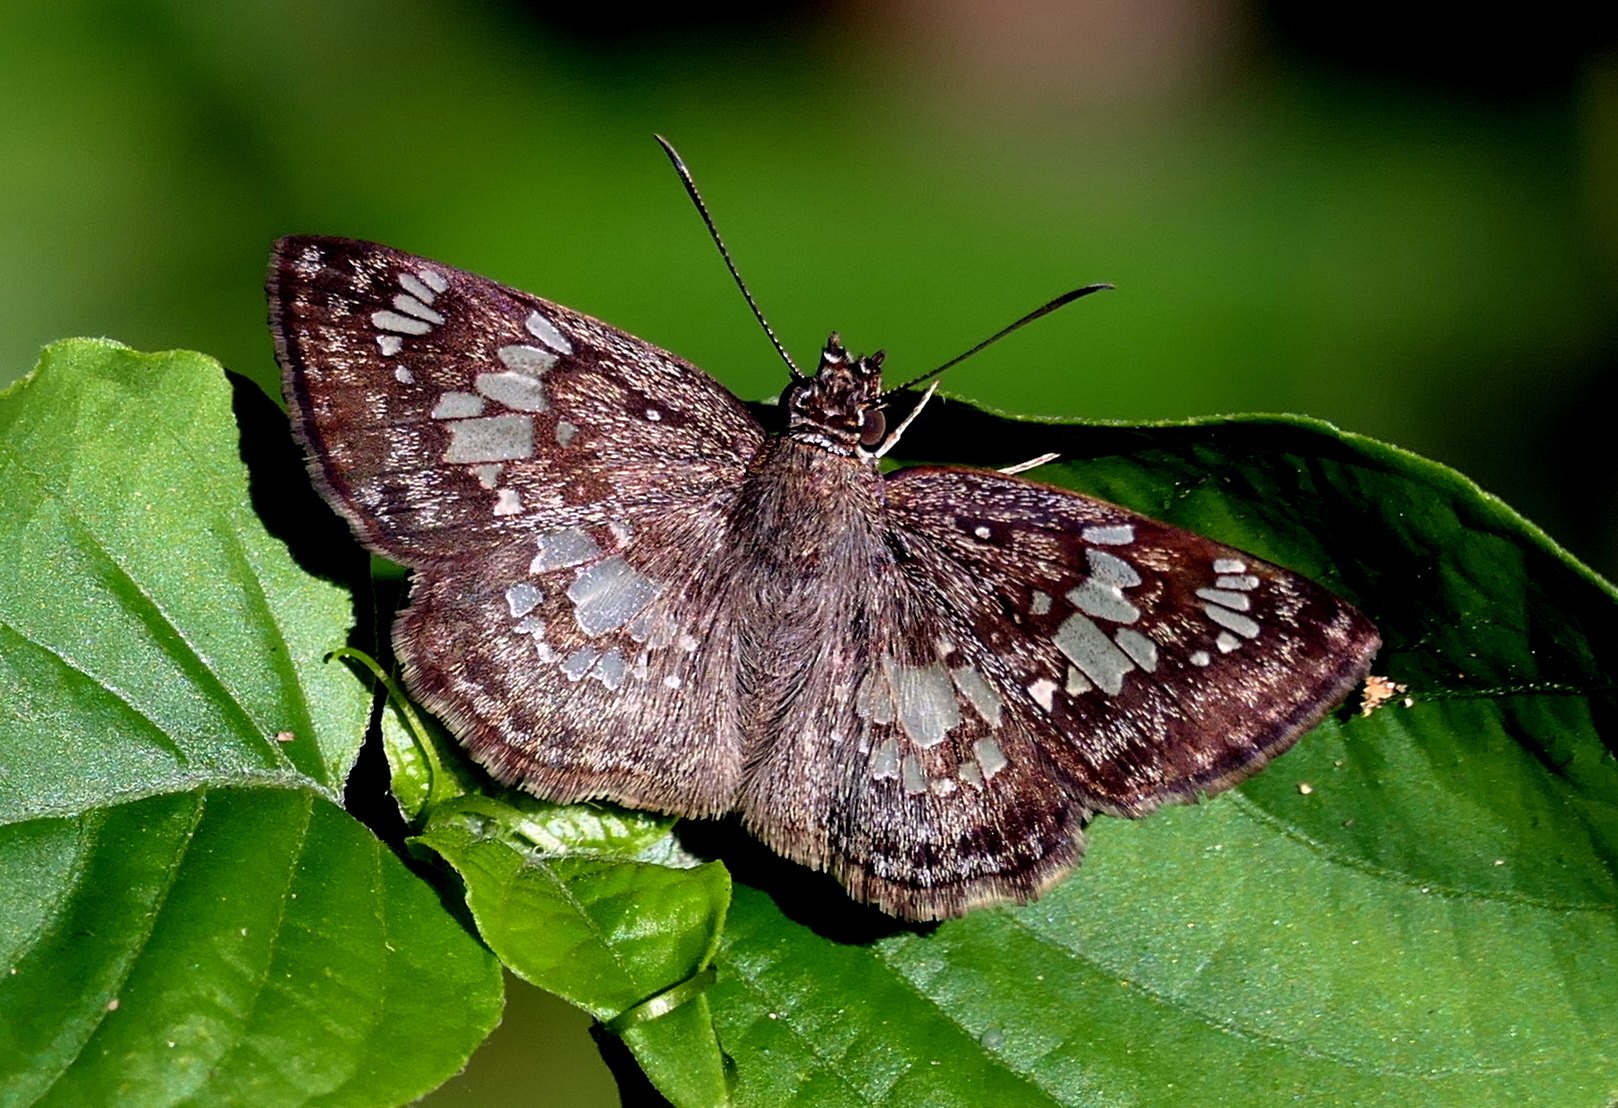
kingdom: Animalia
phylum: Arthropoda
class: Insecta
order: Lepidoptera
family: Hesperiidae
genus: Xenophanes
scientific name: Xenophanes tryxus
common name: Glassy-winged skipper
